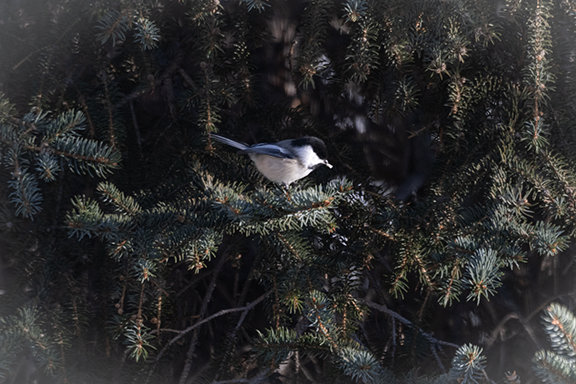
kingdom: Animalia
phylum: Chordata
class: Aves
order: Passeriformes
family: Paridae
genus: Poecile
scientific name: Poecile atricapillus
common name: Black-capped chickadee
